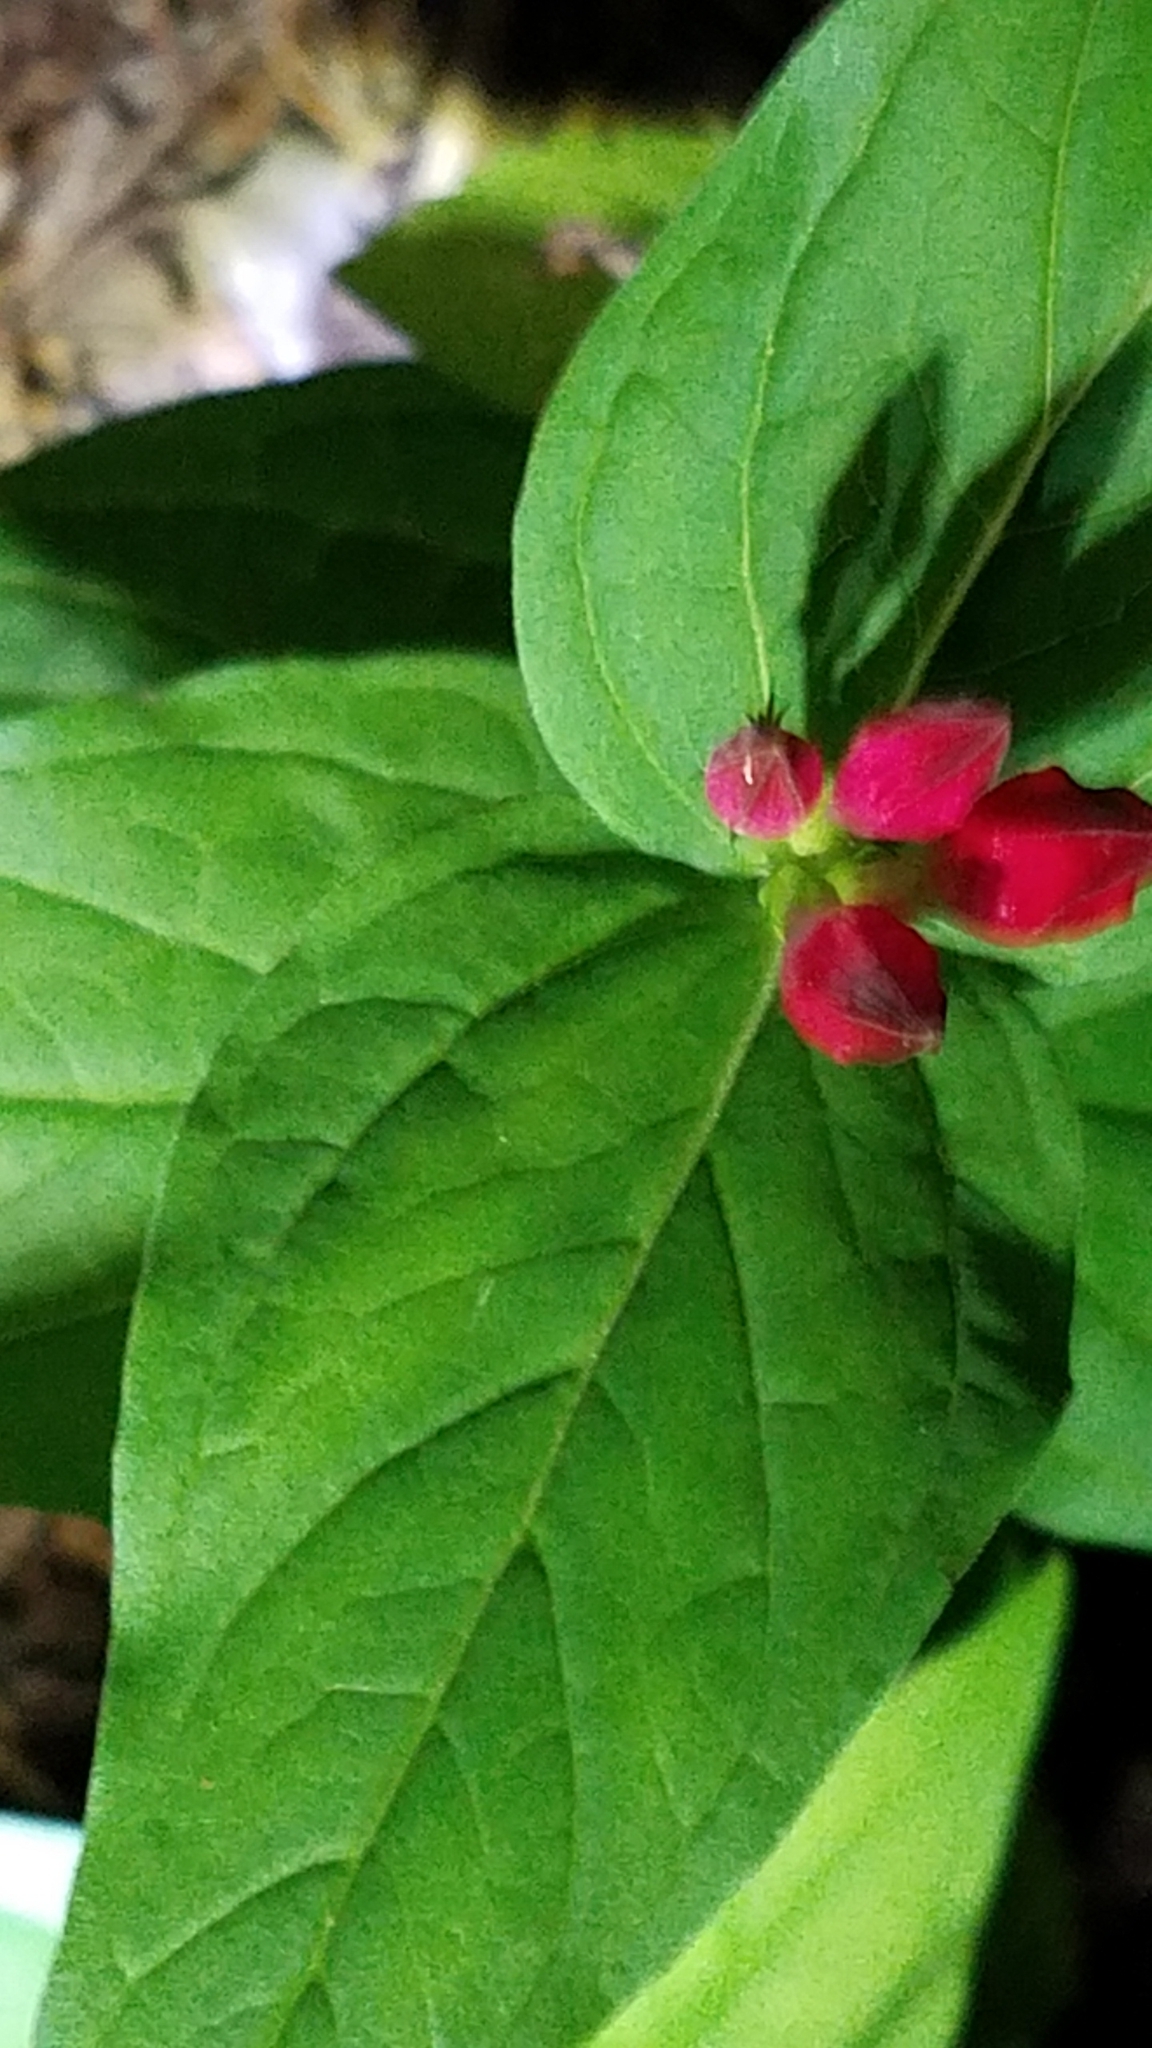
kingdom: Plantae
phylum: Tracheophyta
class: Magnoliopsida
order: Gentianales
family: Loganiaceae
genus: Spigelia
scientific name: Spigelia marilandica
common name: Indian-pink
